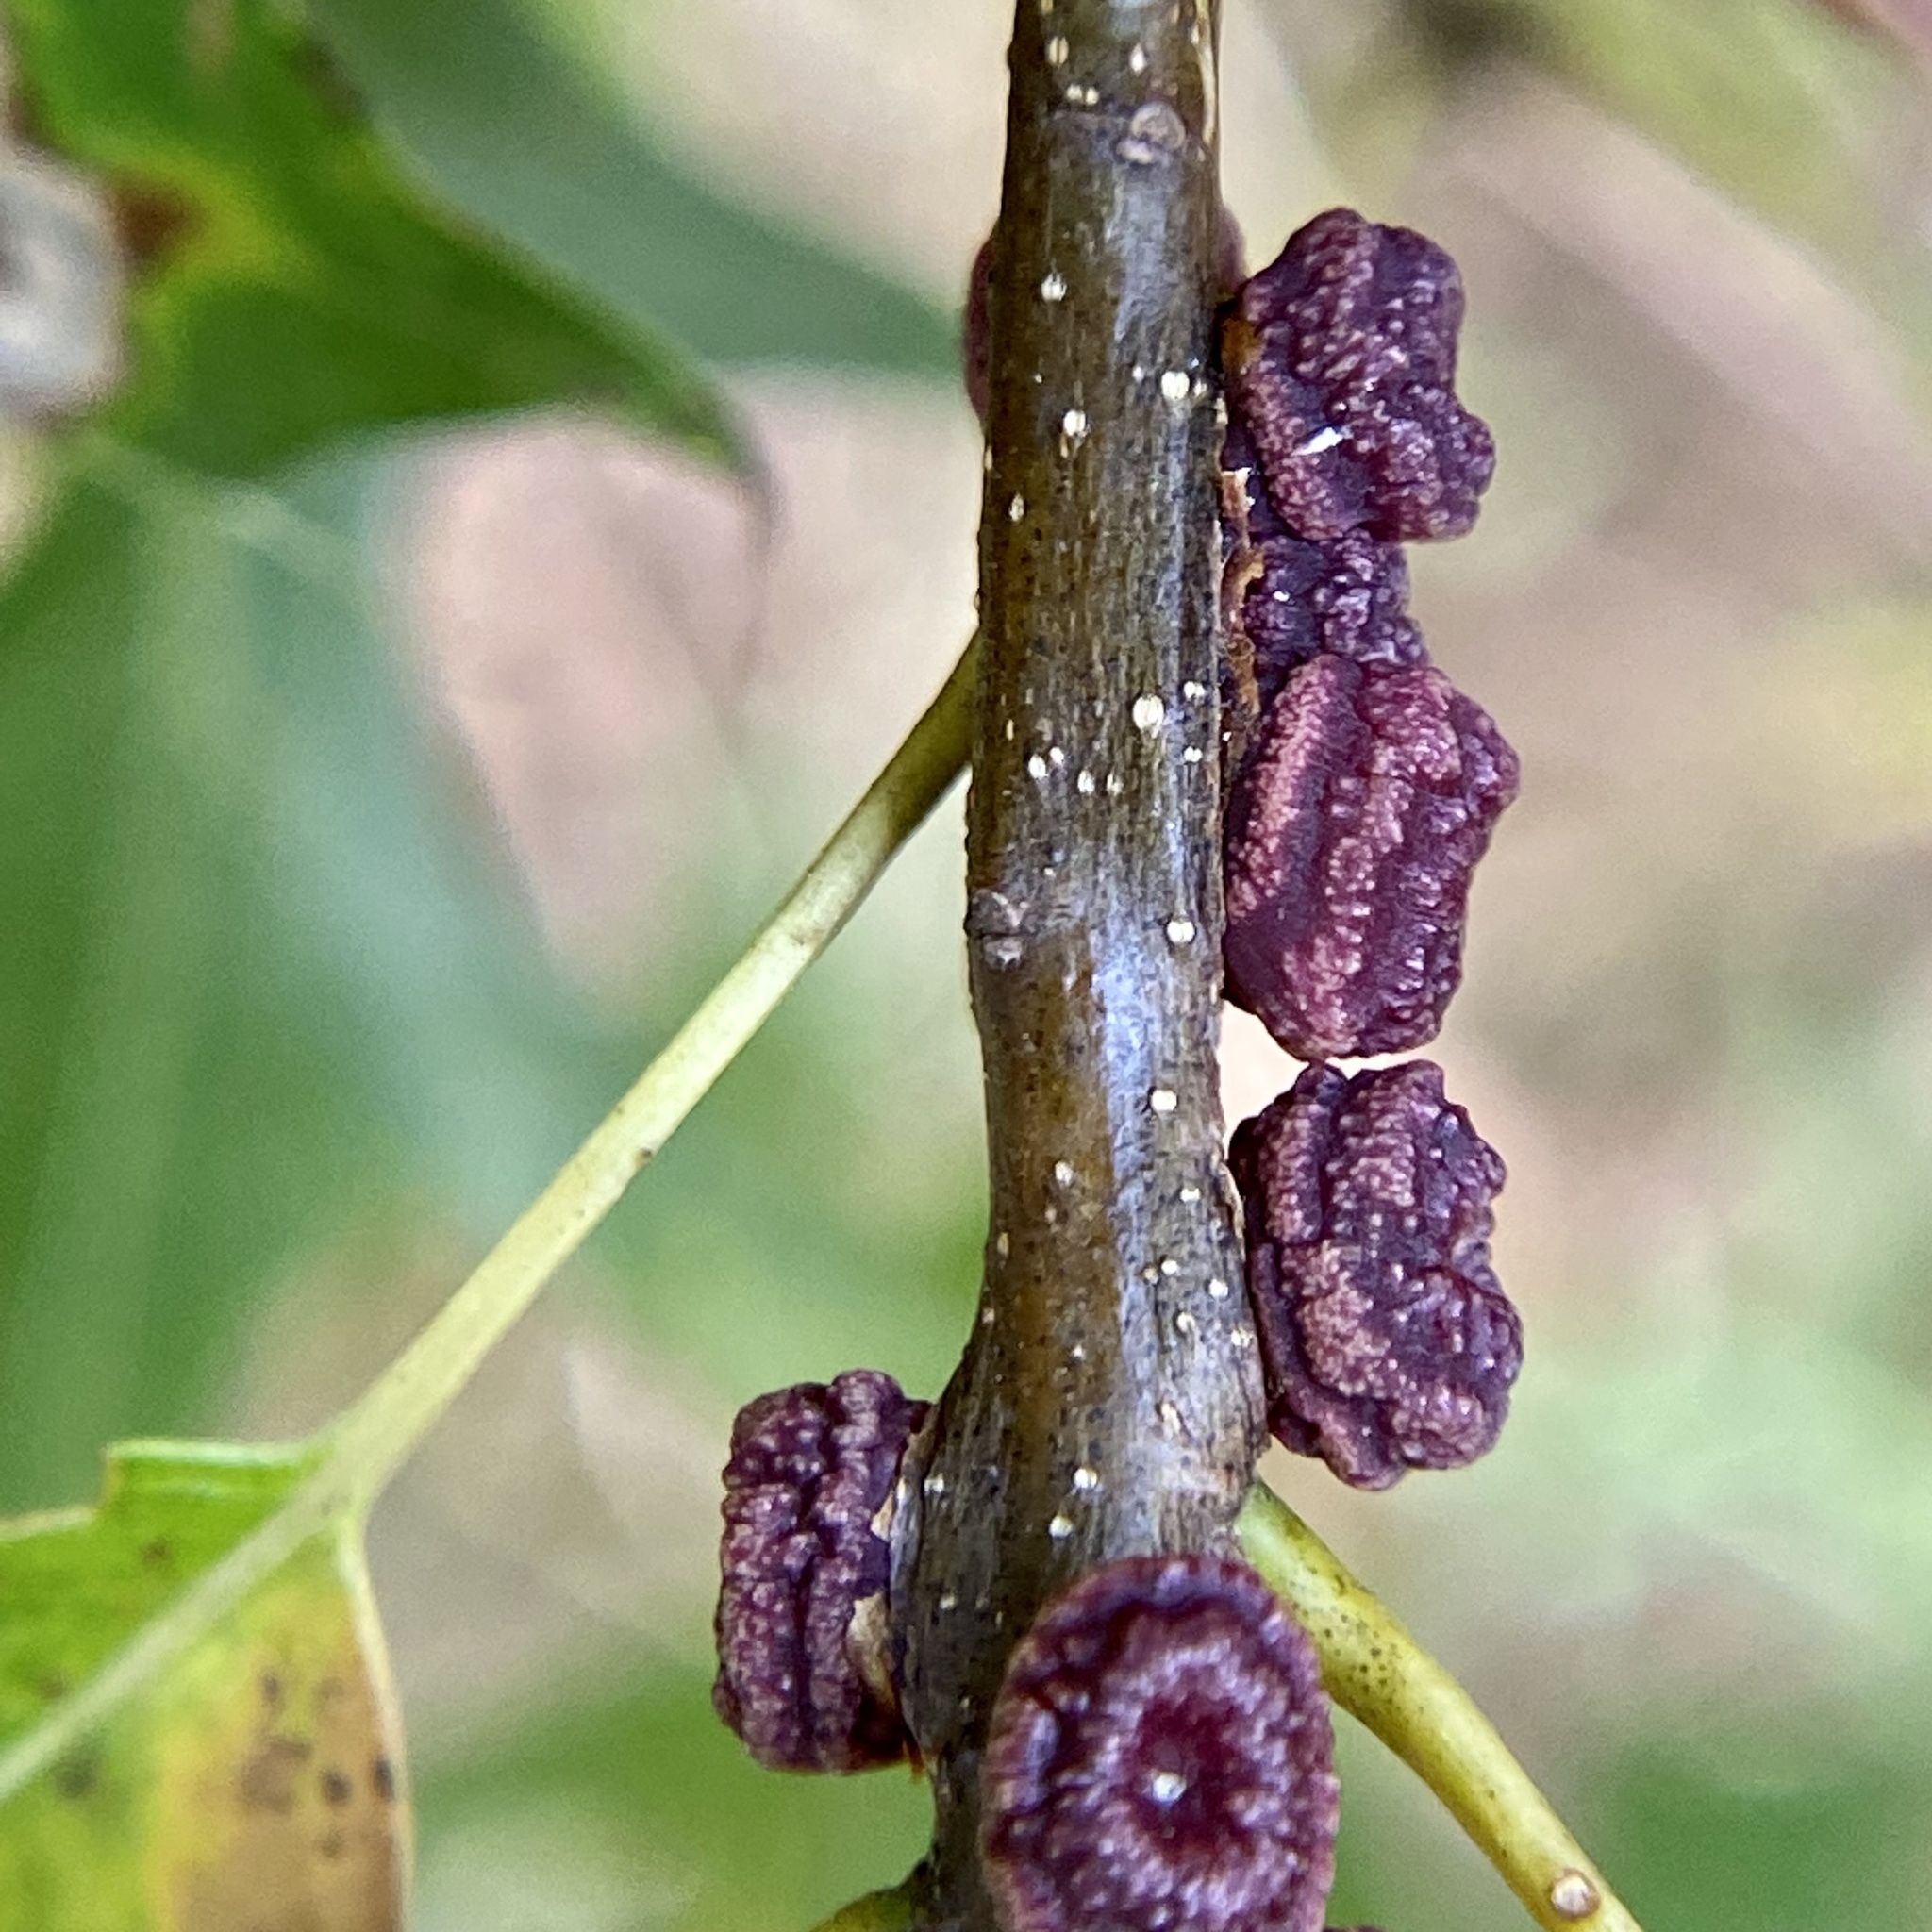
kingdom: Animalia
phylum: Arthropoda
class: Insecta
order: Hymenoptera
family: Cynipidae
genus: Kokkocynips
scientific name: Kokkocynips difficilis
